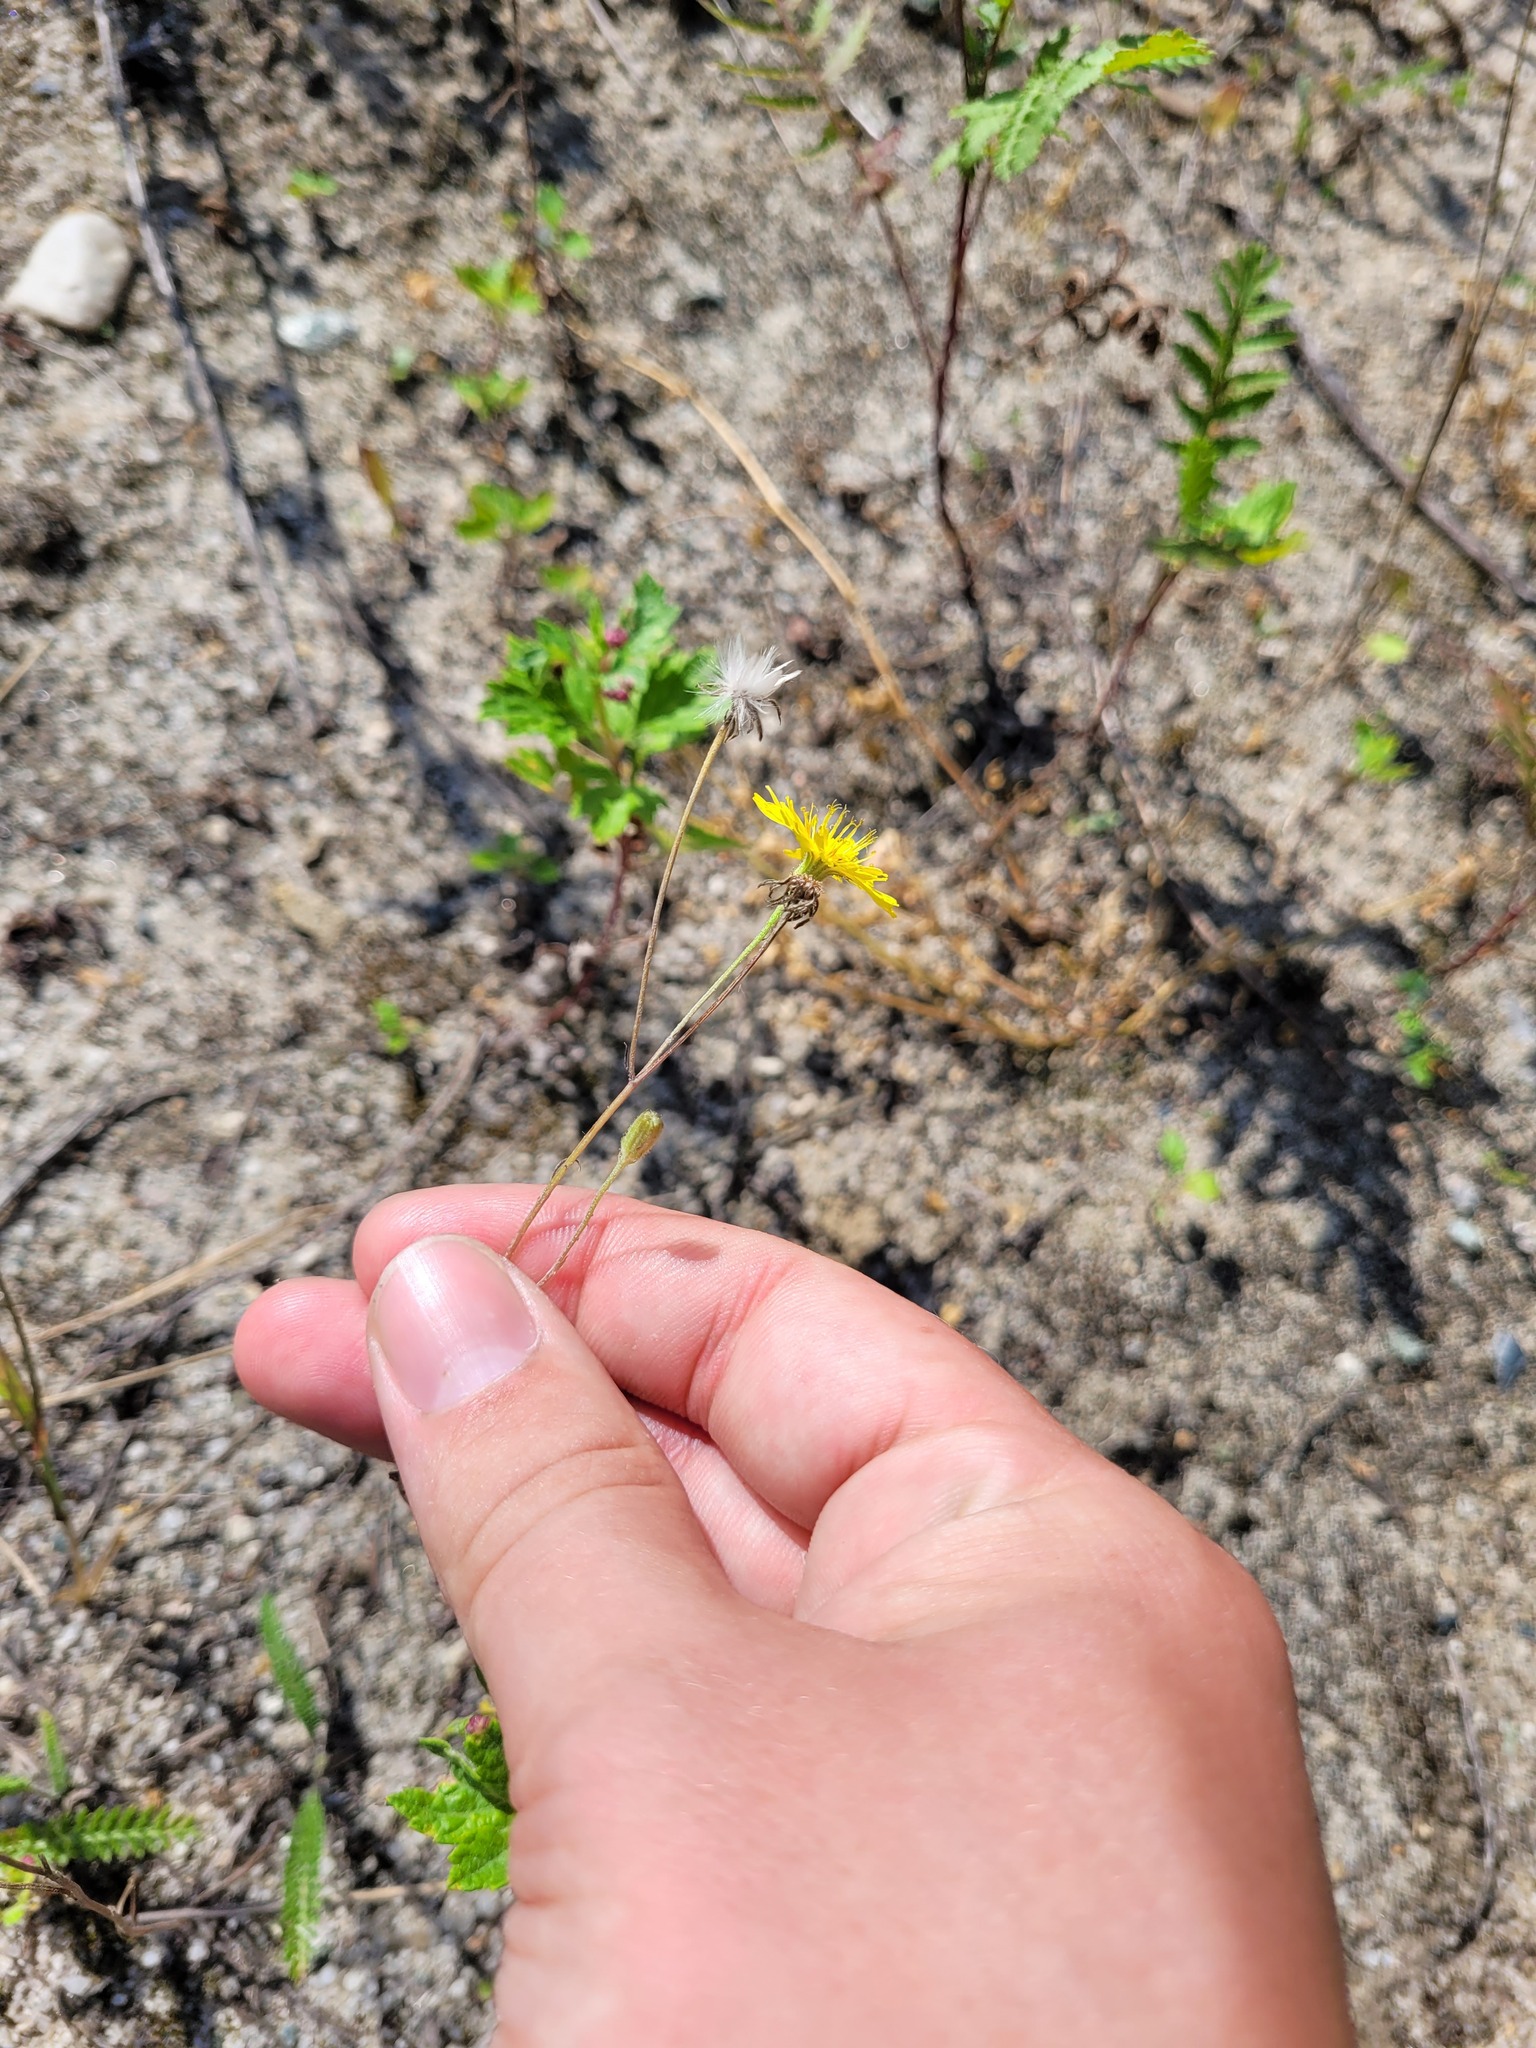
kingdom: Plantae
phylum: Tracheophyta
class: Magnoliopsida
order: Asterales
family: Asteraceae
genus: Crepis
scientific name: Crepis tectorum
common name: Narrow-leaved hawk's-beard
